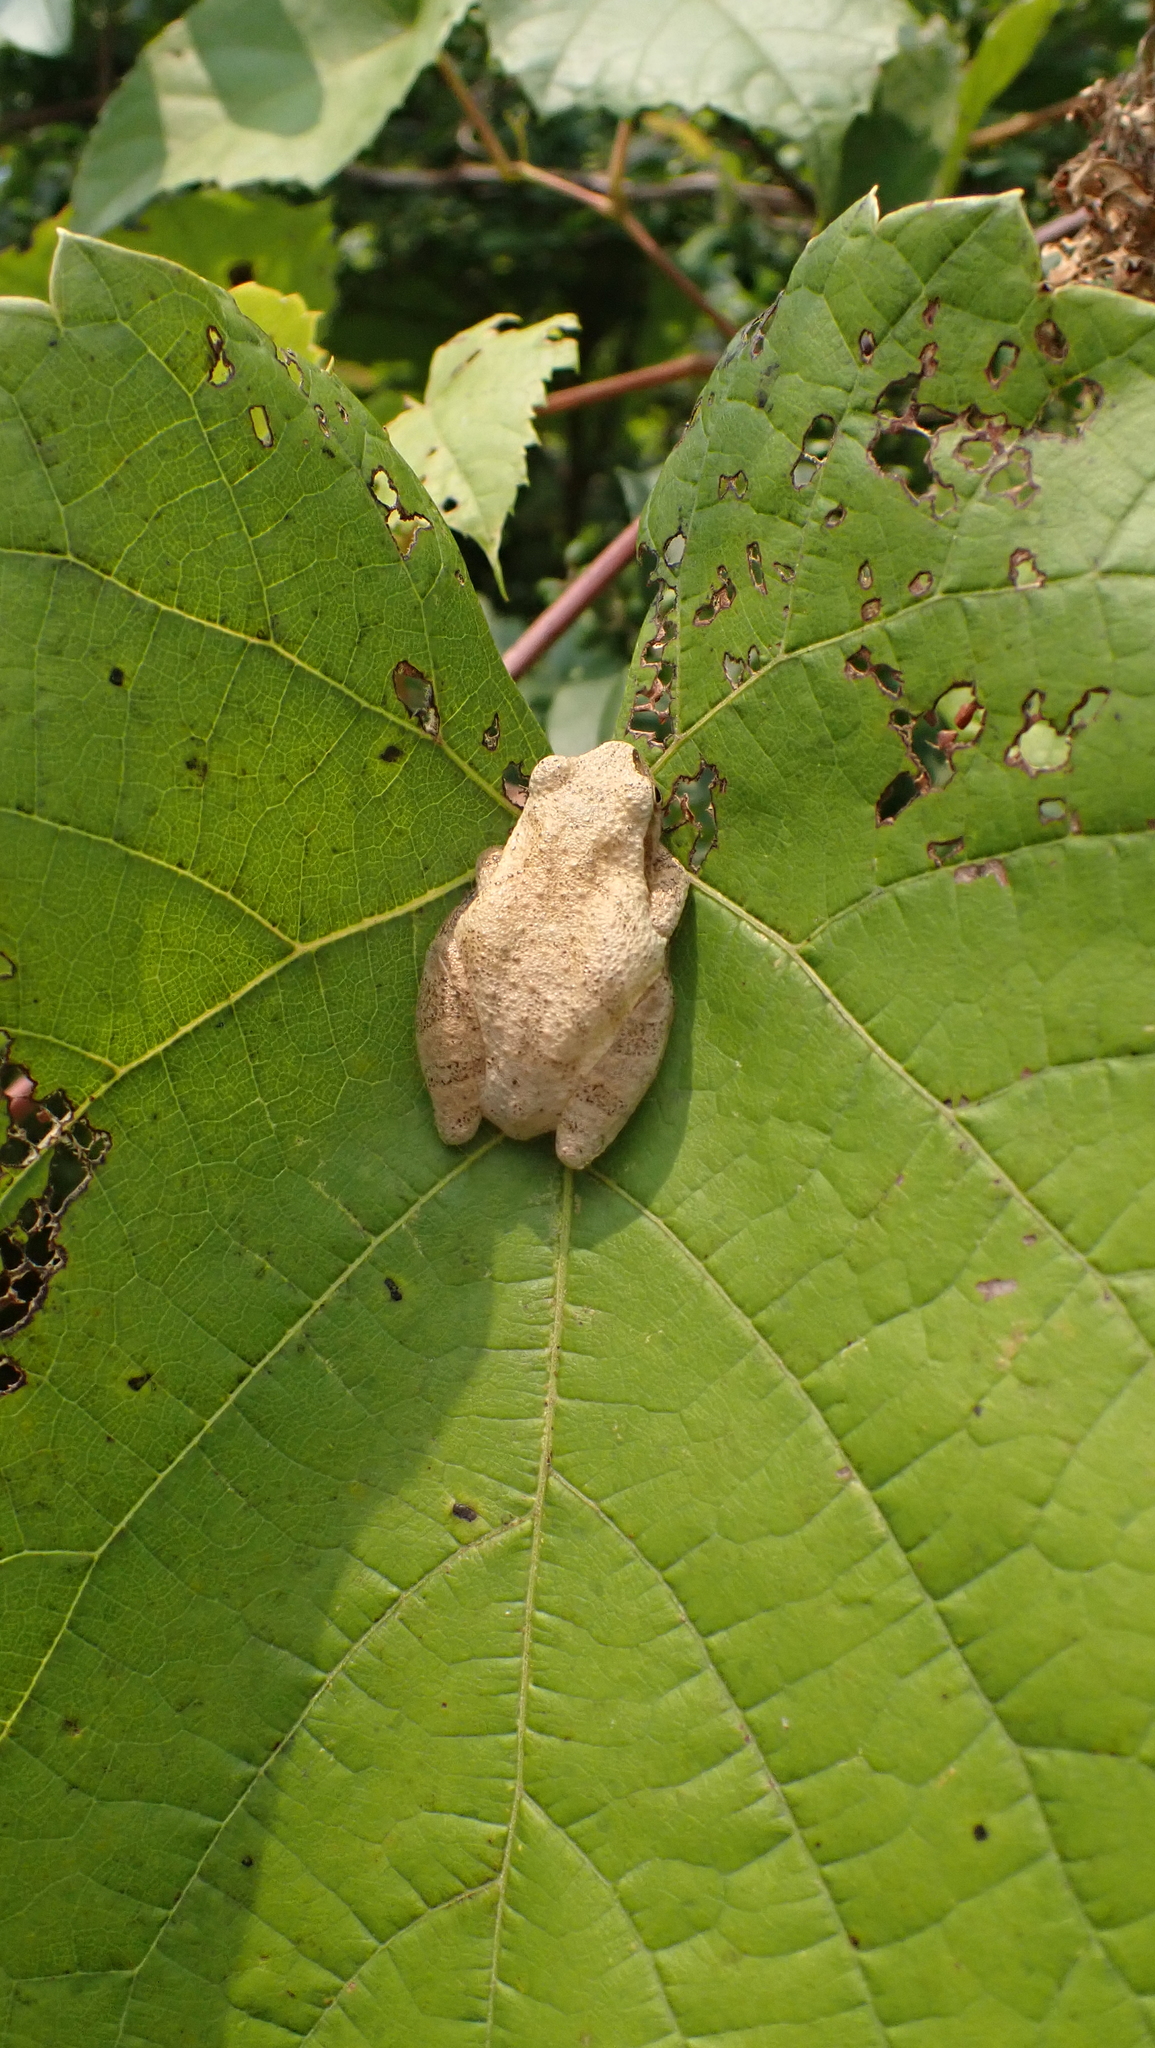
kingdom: Animalia
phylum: Chordata
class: Amphibia
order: Anura
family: Hylidae
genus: Pseudacris
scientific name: Pseudacris crucifer
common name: Spring peeper
